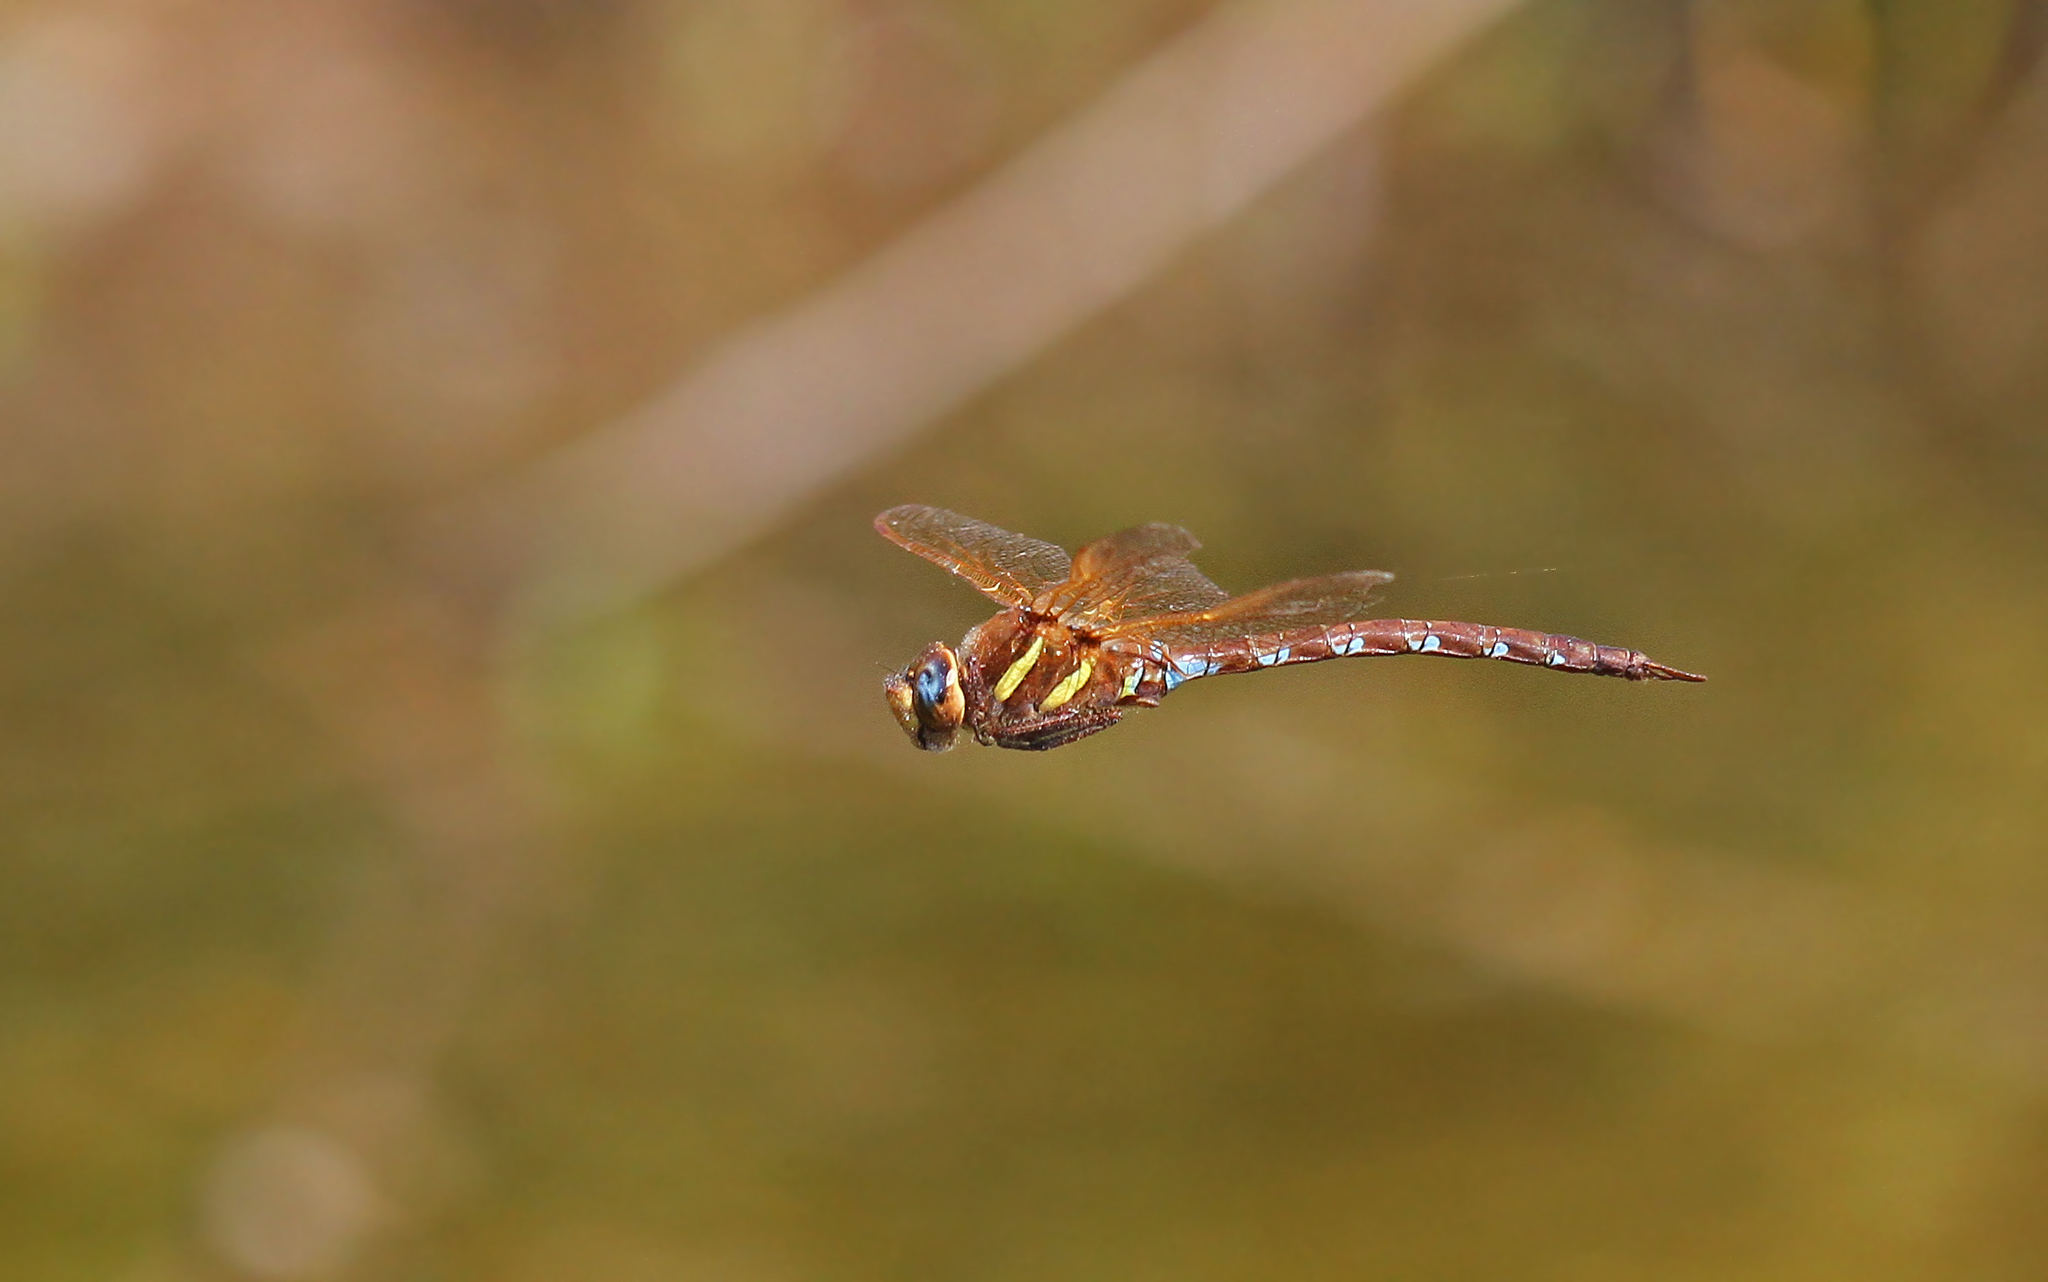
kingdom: Animalia
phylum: Arthropoda
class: Insecta
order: Odonata
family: Aeshnidae
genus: Aeshna
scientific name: Aeshna grandis
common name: Brown hawker
